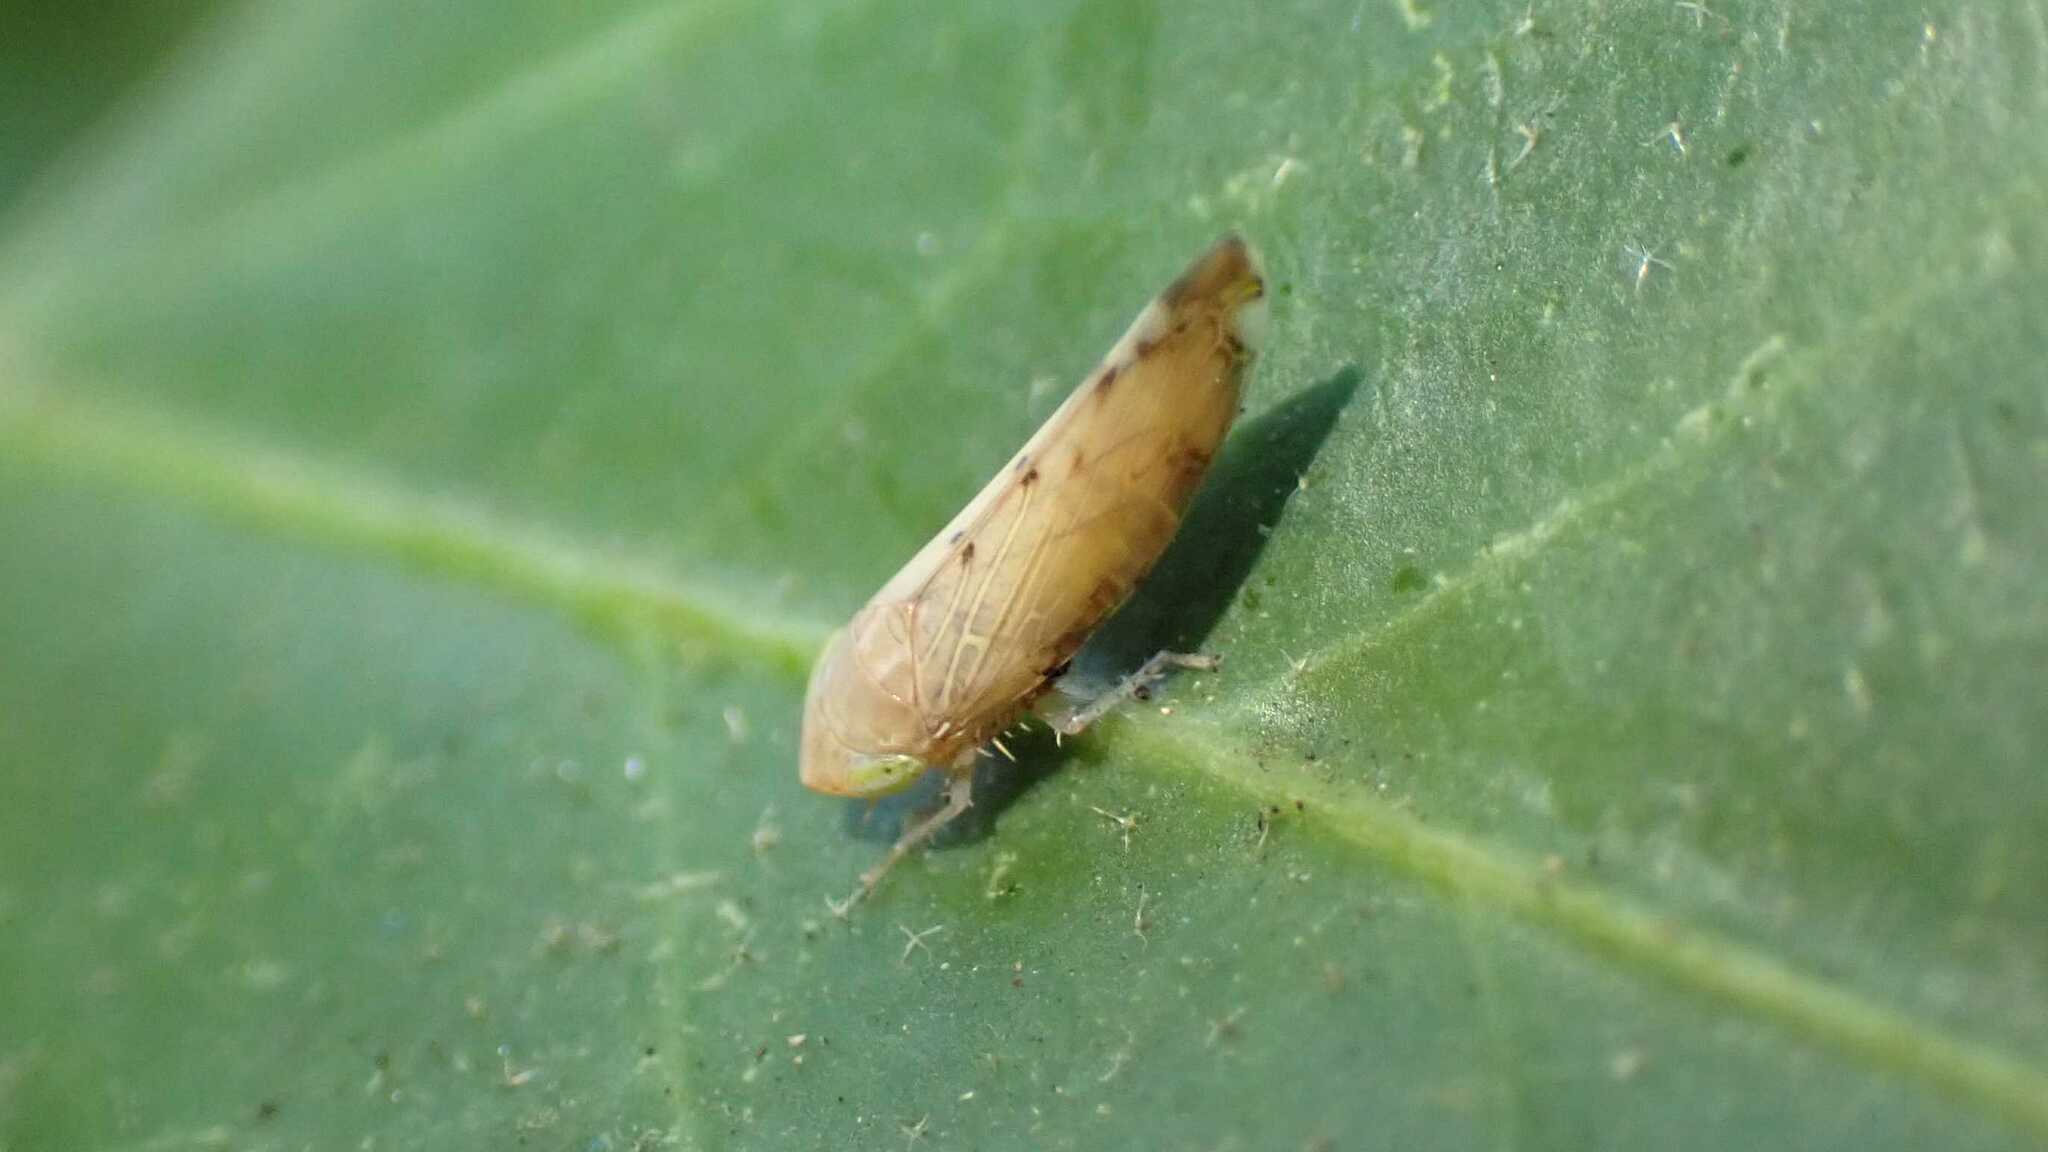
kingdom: Animalia
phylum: Arthropoda
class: Insecta
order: Hemiptera
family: Cicadellidae
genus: Synophropsis
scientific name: Synophropsis lauri
